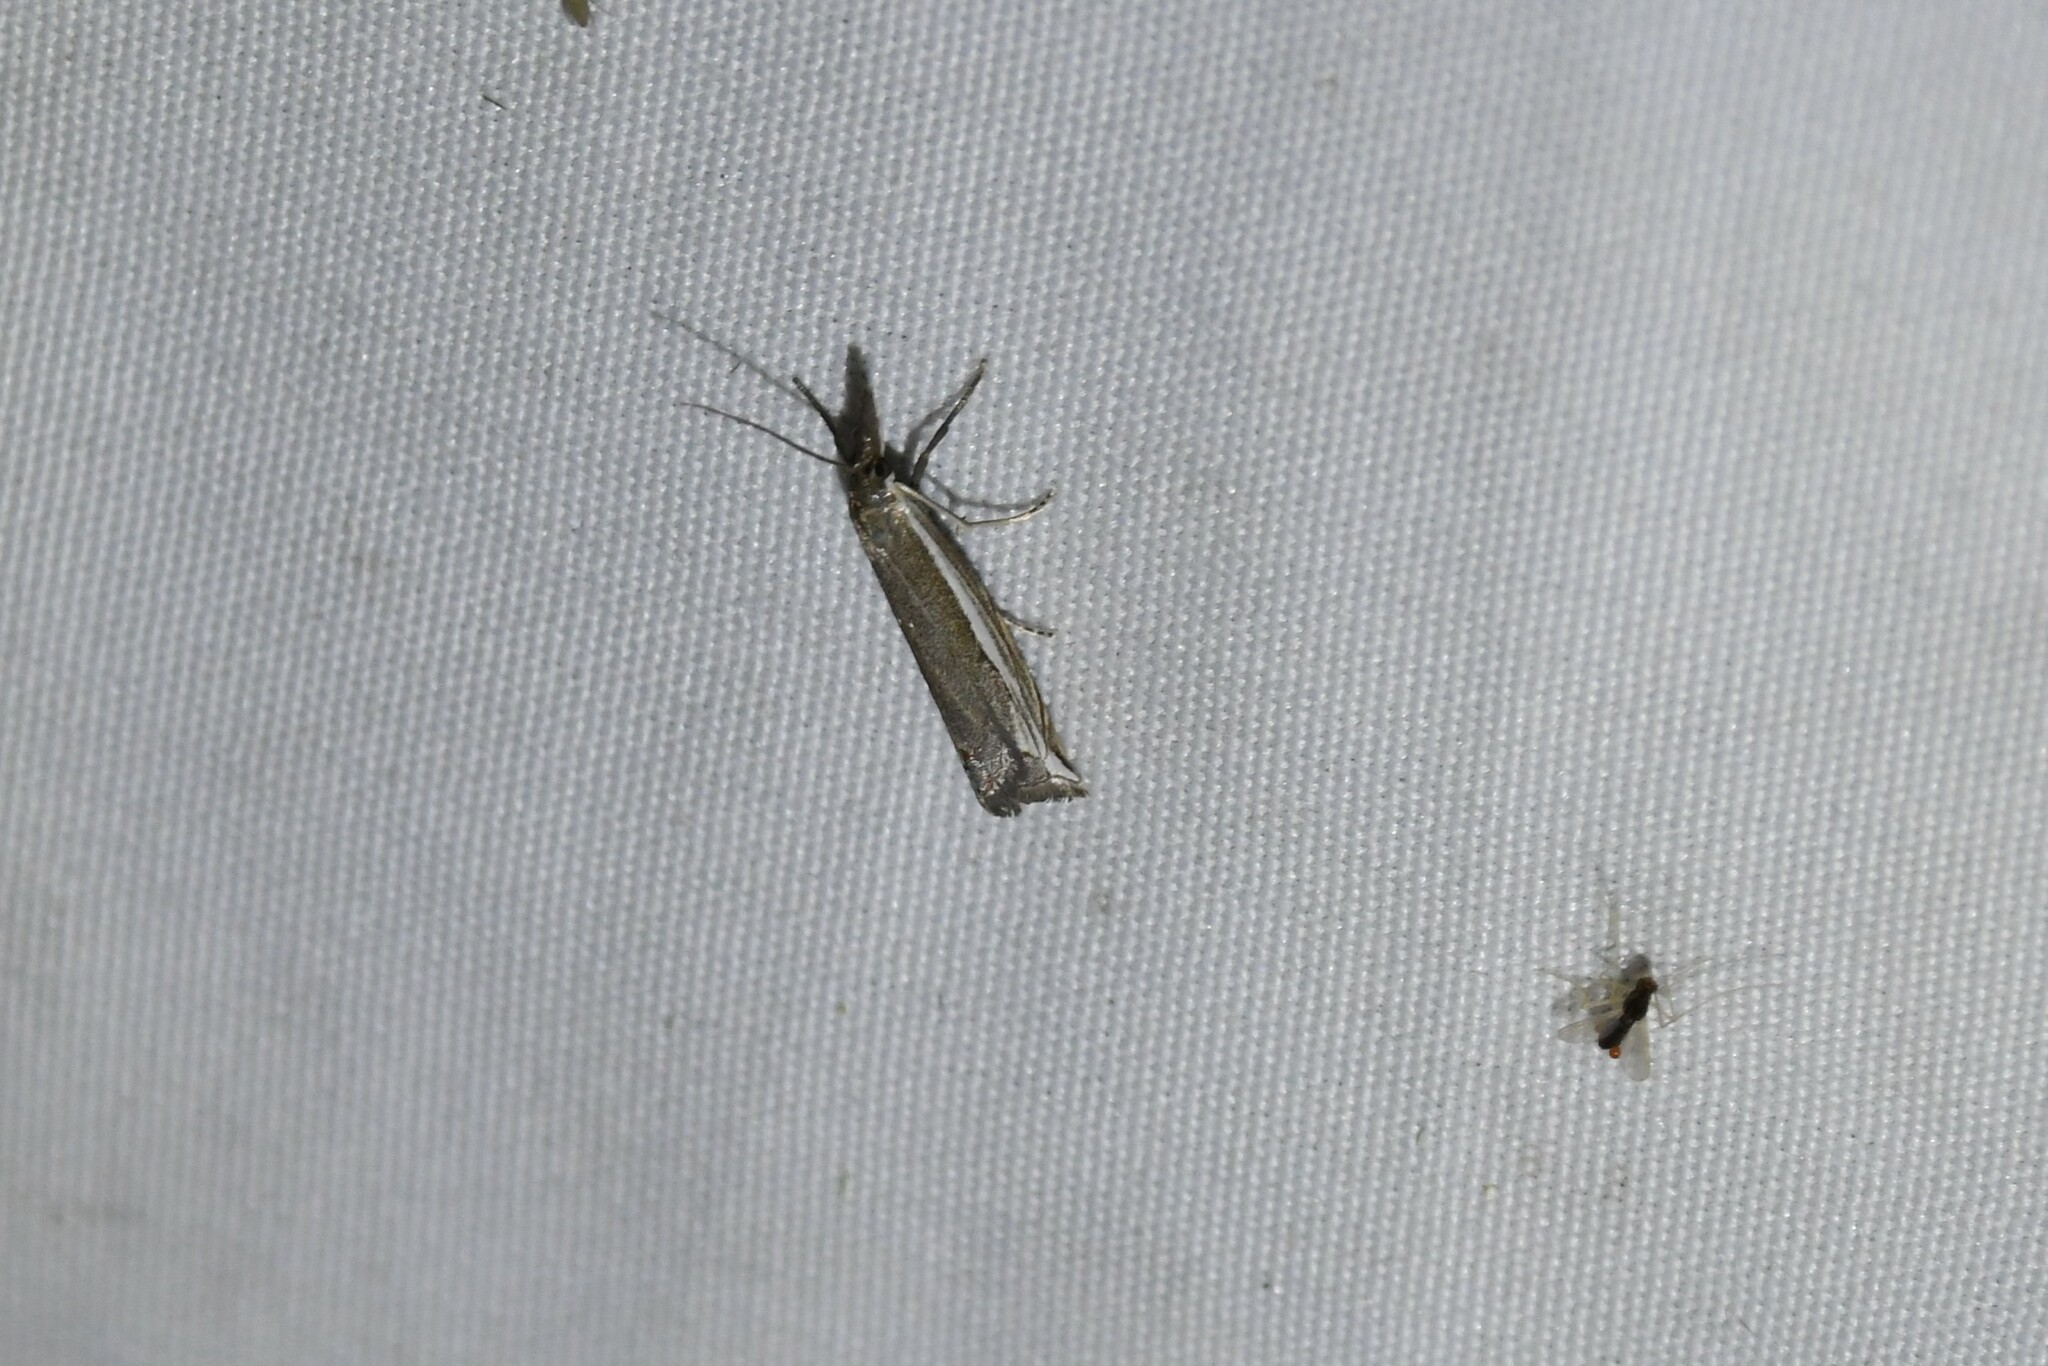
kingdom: Animalia
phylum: Arthropoda
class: Insecta
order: Lepidoptera
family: Crambidae
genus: Raphiptera
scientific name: Raphiptera argillaceellus
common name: Diminutive grass-veneer
